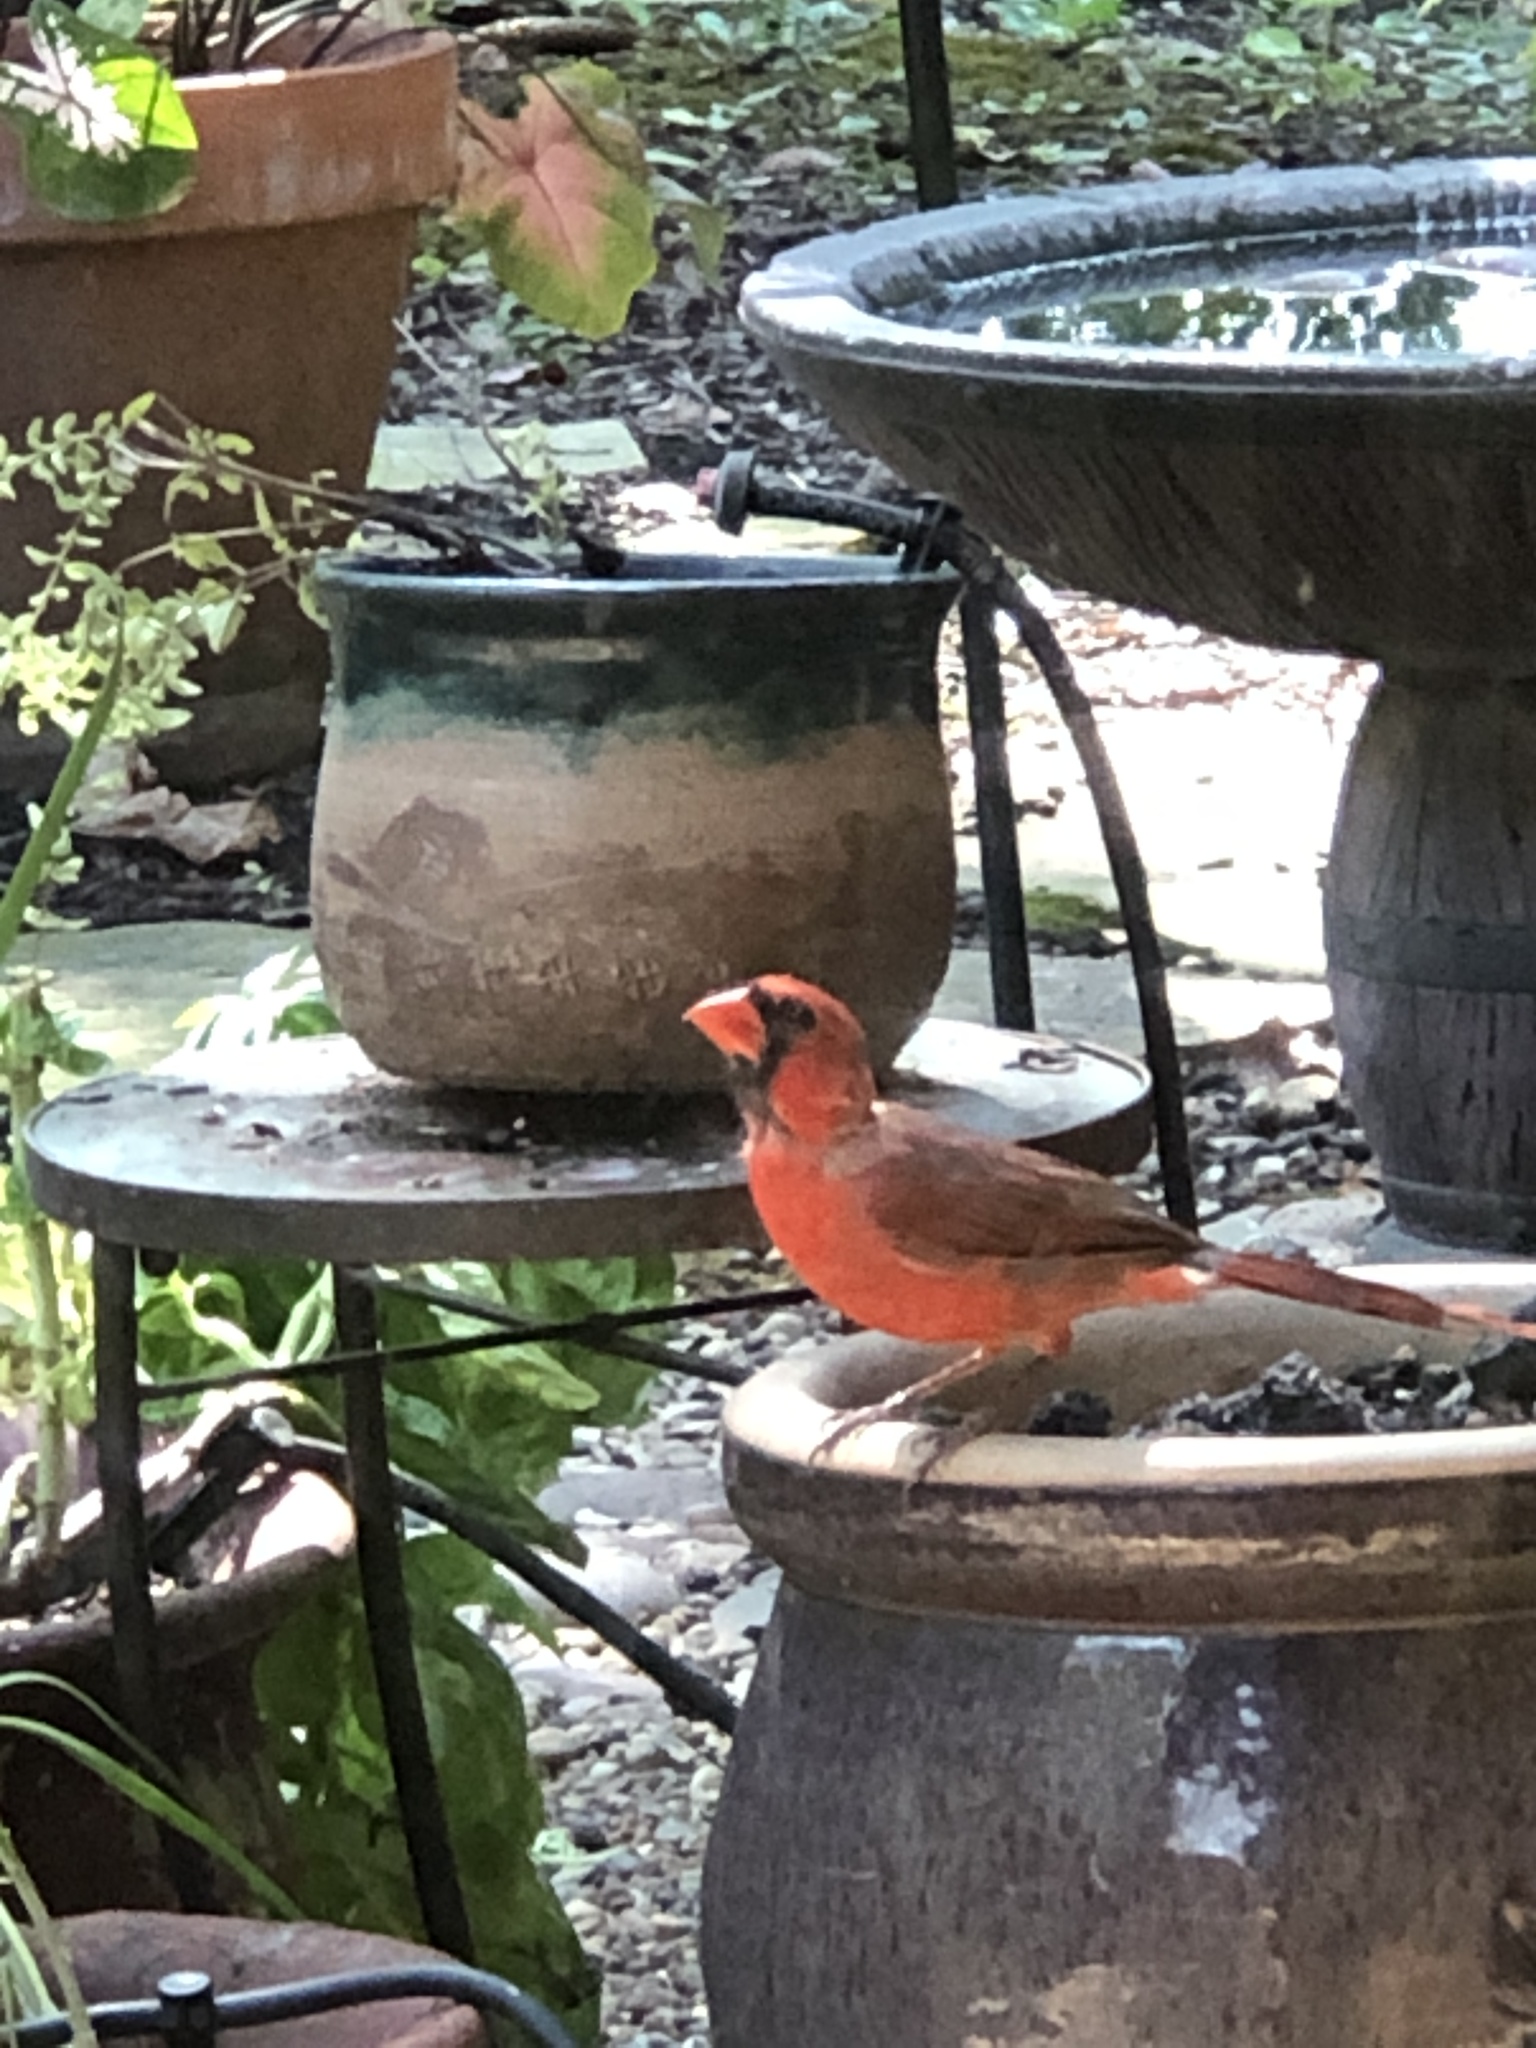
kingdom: Animalia
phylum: Chordata
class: Aves
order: Passeriformes
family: Cardinalidae
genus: Cardinalis
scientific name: Cardinalis cardinalis
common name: Northern cardinal
